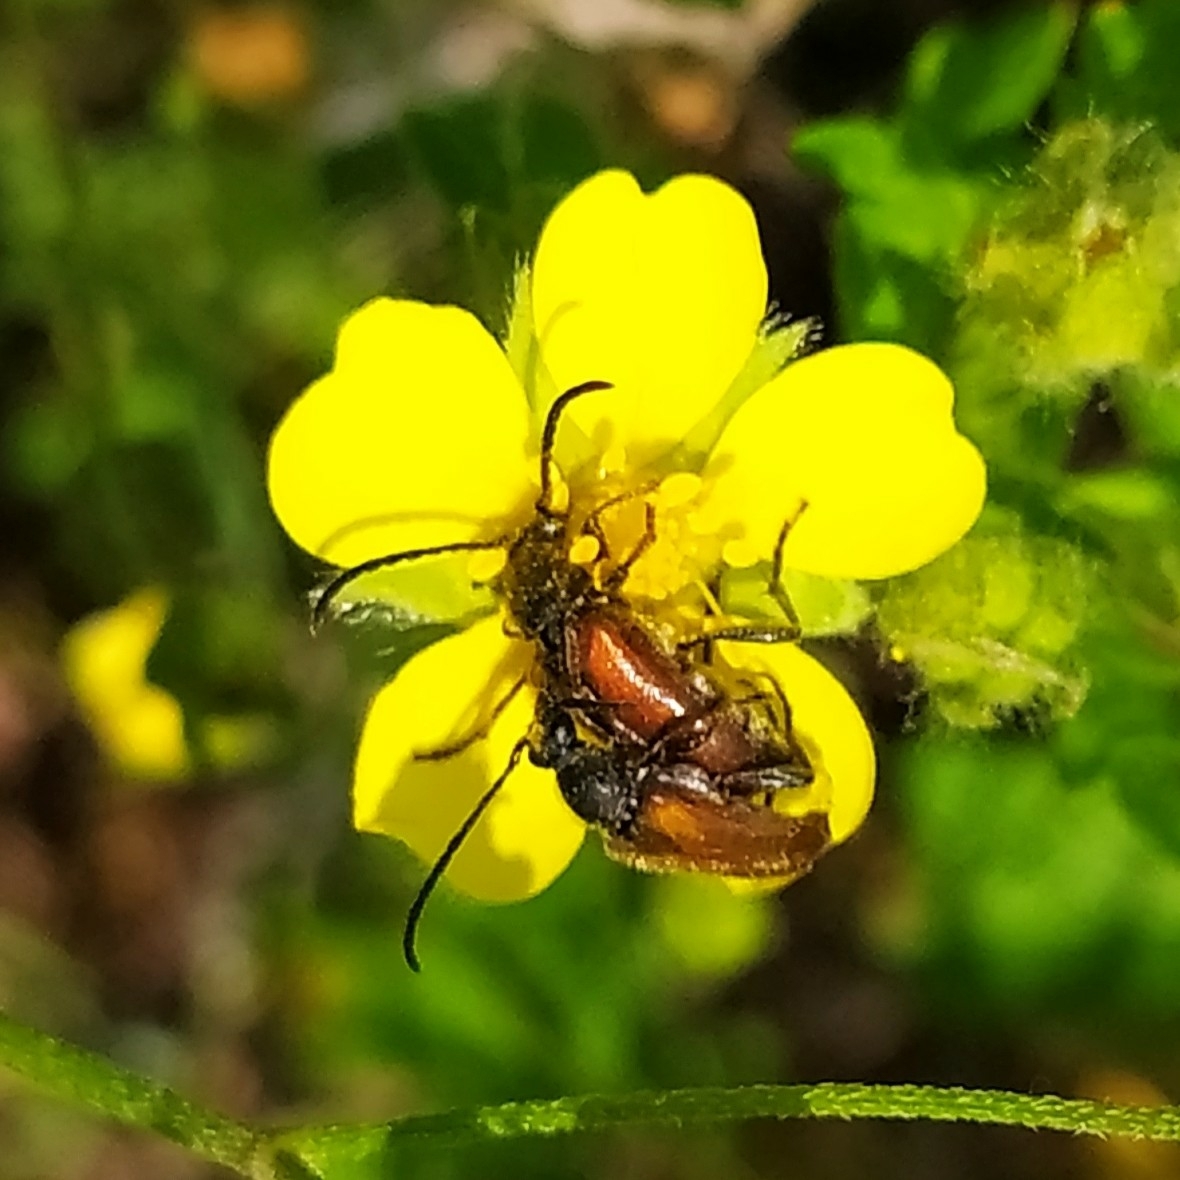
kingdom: Animalia
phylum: Arthropoda
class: Insecta
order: Coleoptera
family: Cerambycidae
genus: Pseudovadonia
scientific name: Pseudovadonia livida
